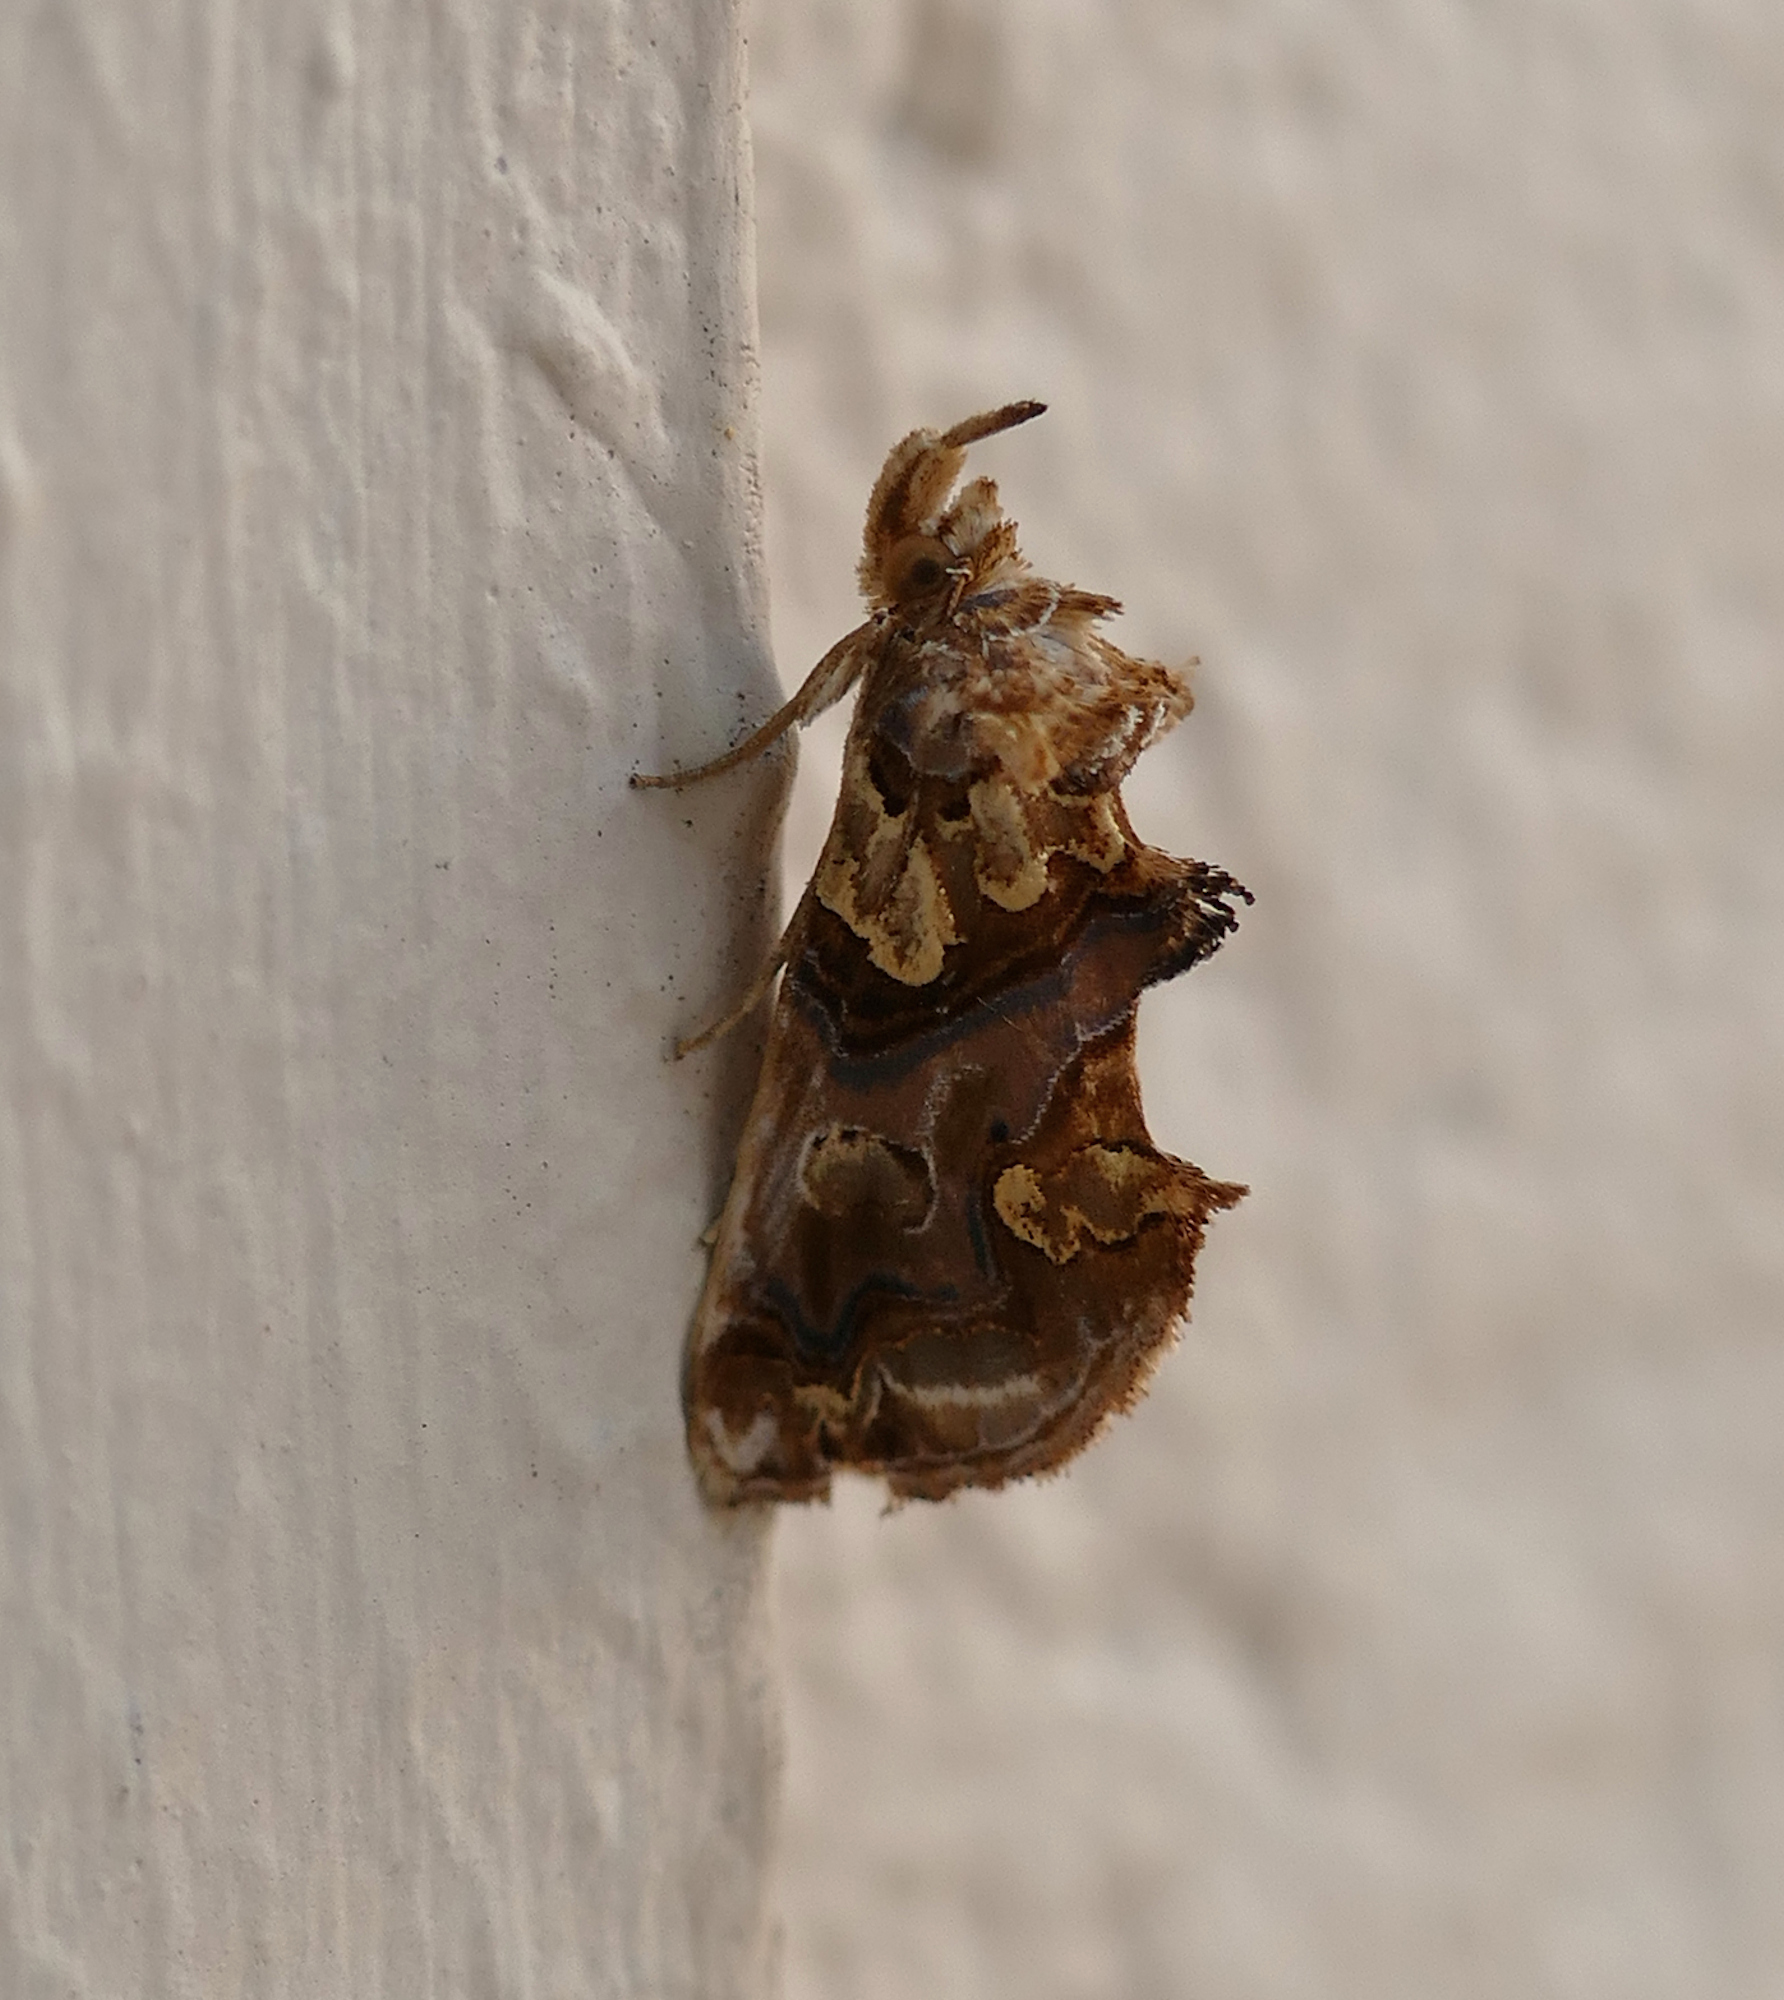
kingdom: Animalia
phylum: Arthropoda
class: Insecta
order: Lepidoptera
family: Erebidae
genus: Plusiodonta
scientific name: Plusiodonta compressipalpis
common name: Moonseed moth
